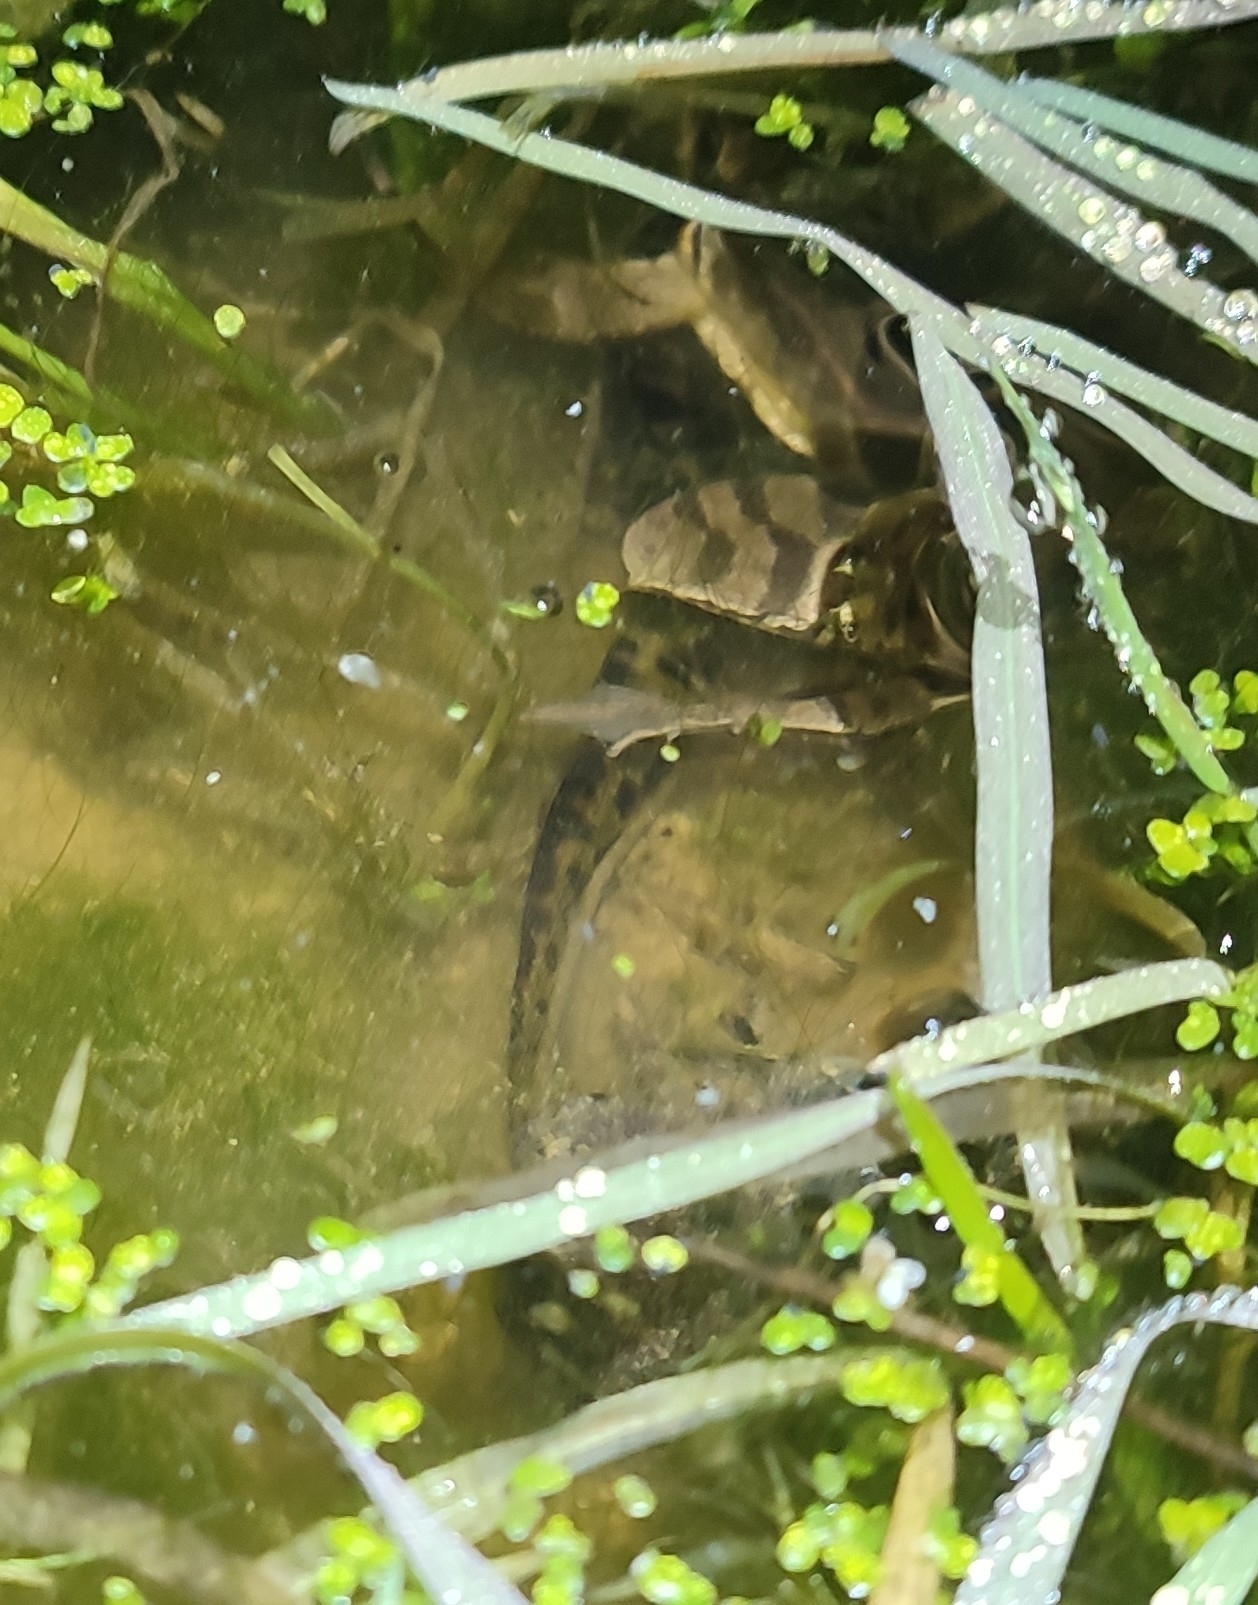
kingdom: Animalia
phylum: Chordata
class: Amphibia
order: Caudata
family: Salamandridae
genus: Triturus
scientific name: Triturus marmoratus
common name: Marbled newt
